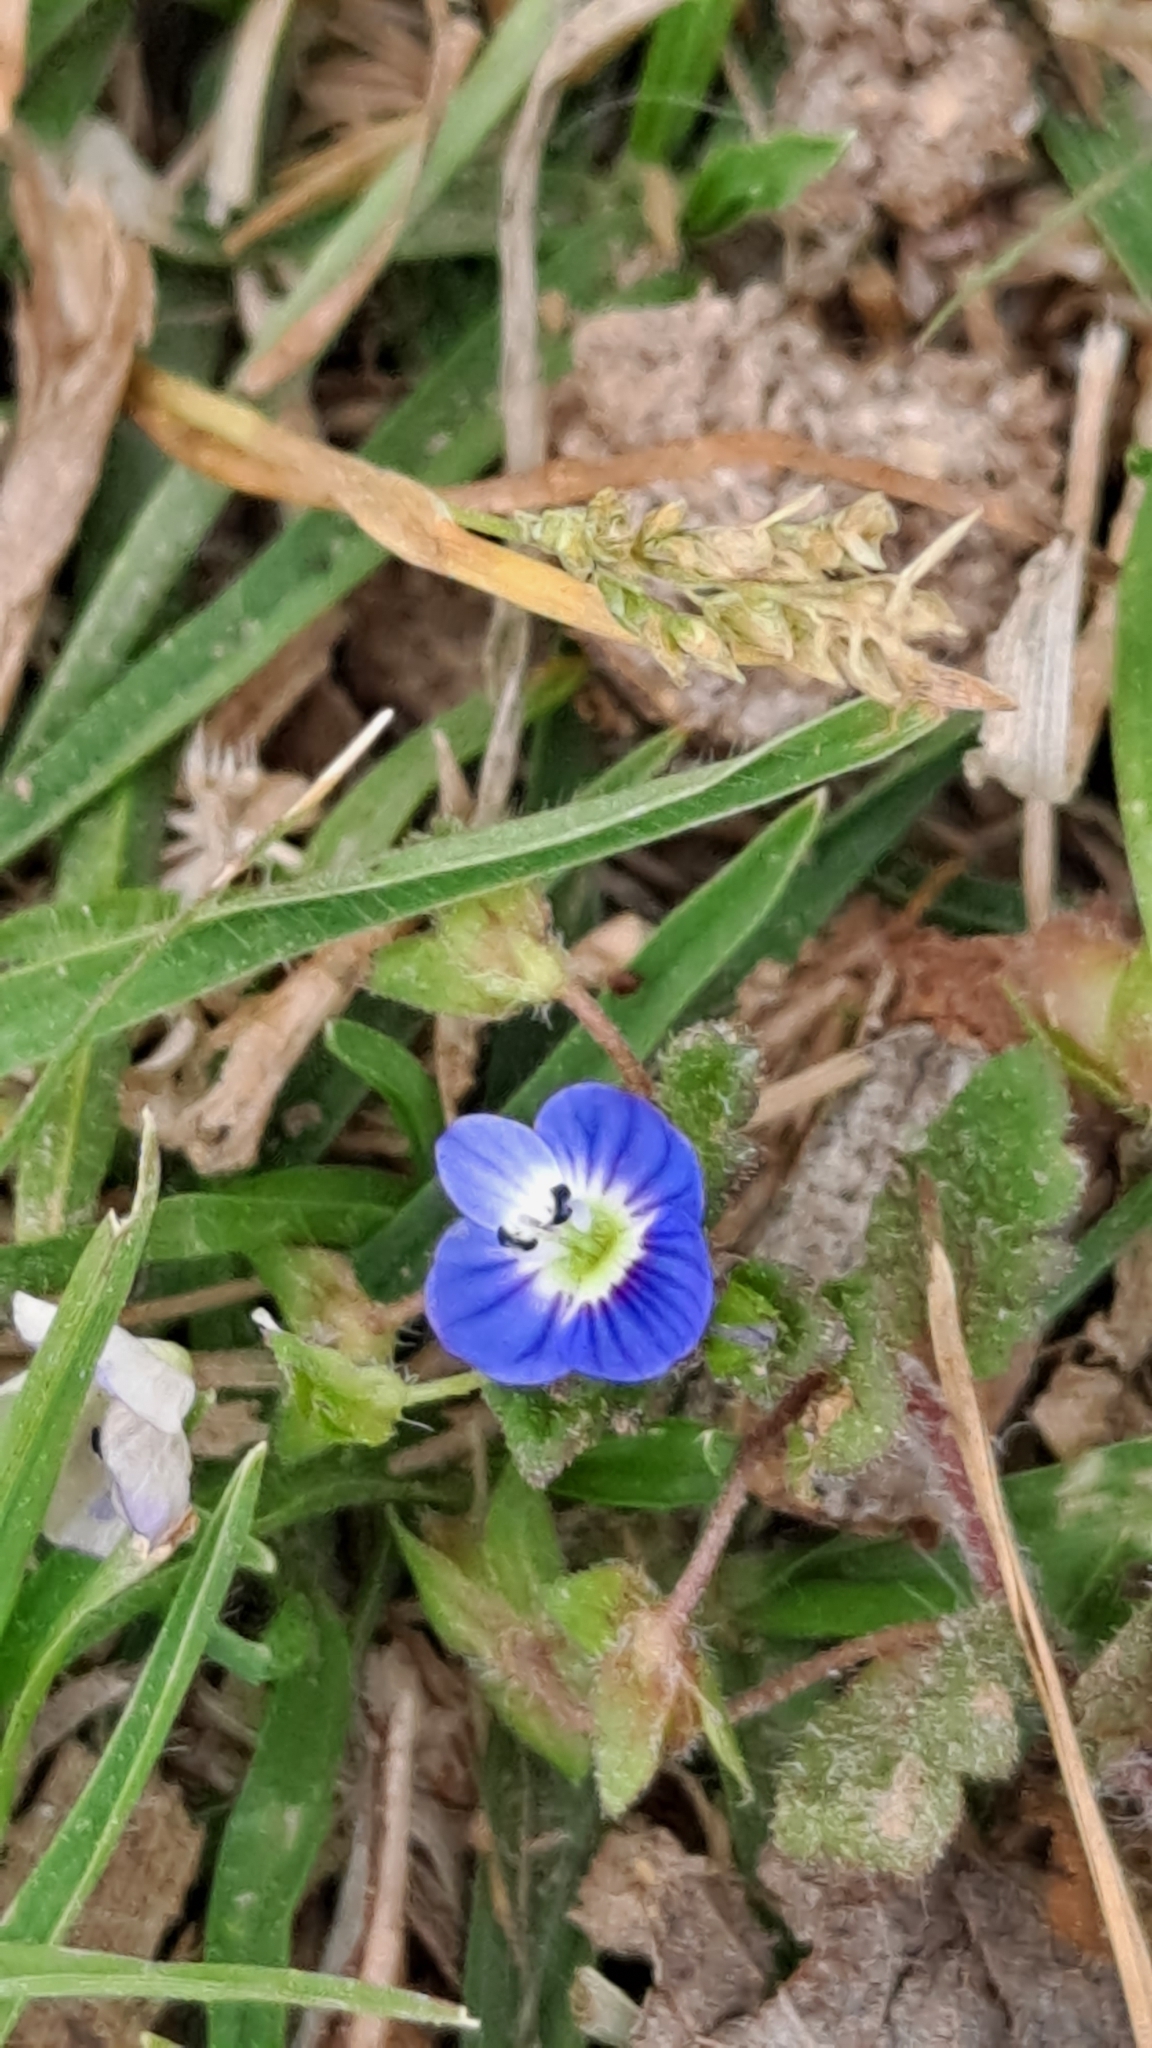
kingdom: Plantae
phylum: Tracheophyta
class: Magnoliopsida
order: Lamiales
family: Plantaginaceae
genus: Veronica
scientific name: Veronica persica
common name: Common field-speedwell
